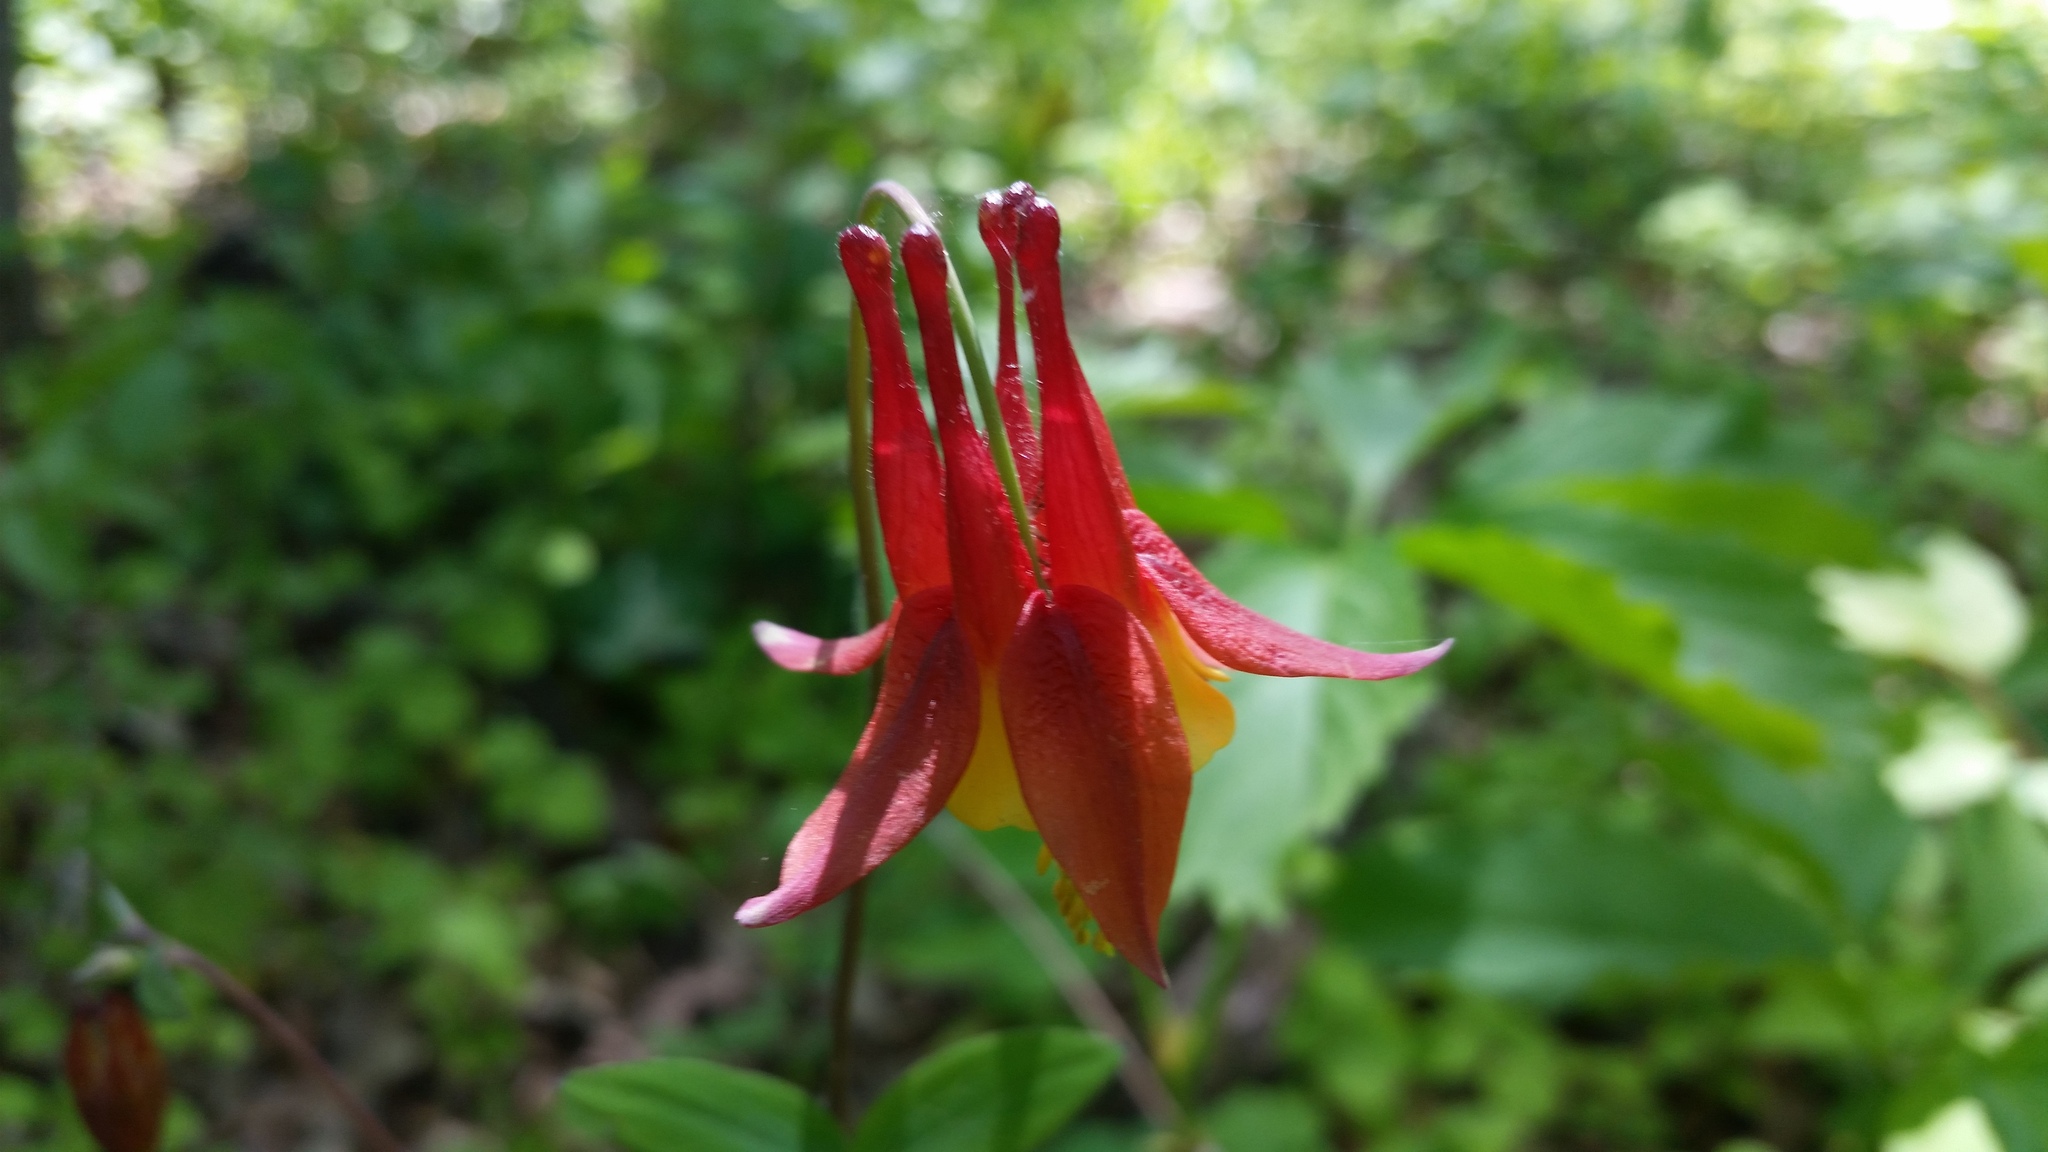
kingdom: Plantae
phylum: Tracheophyta
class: Magnoliopsida
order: Ranunculales
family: Ranunculaceae
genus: Aquilegia
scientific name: Aquilegia canadensis
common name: American columbine
